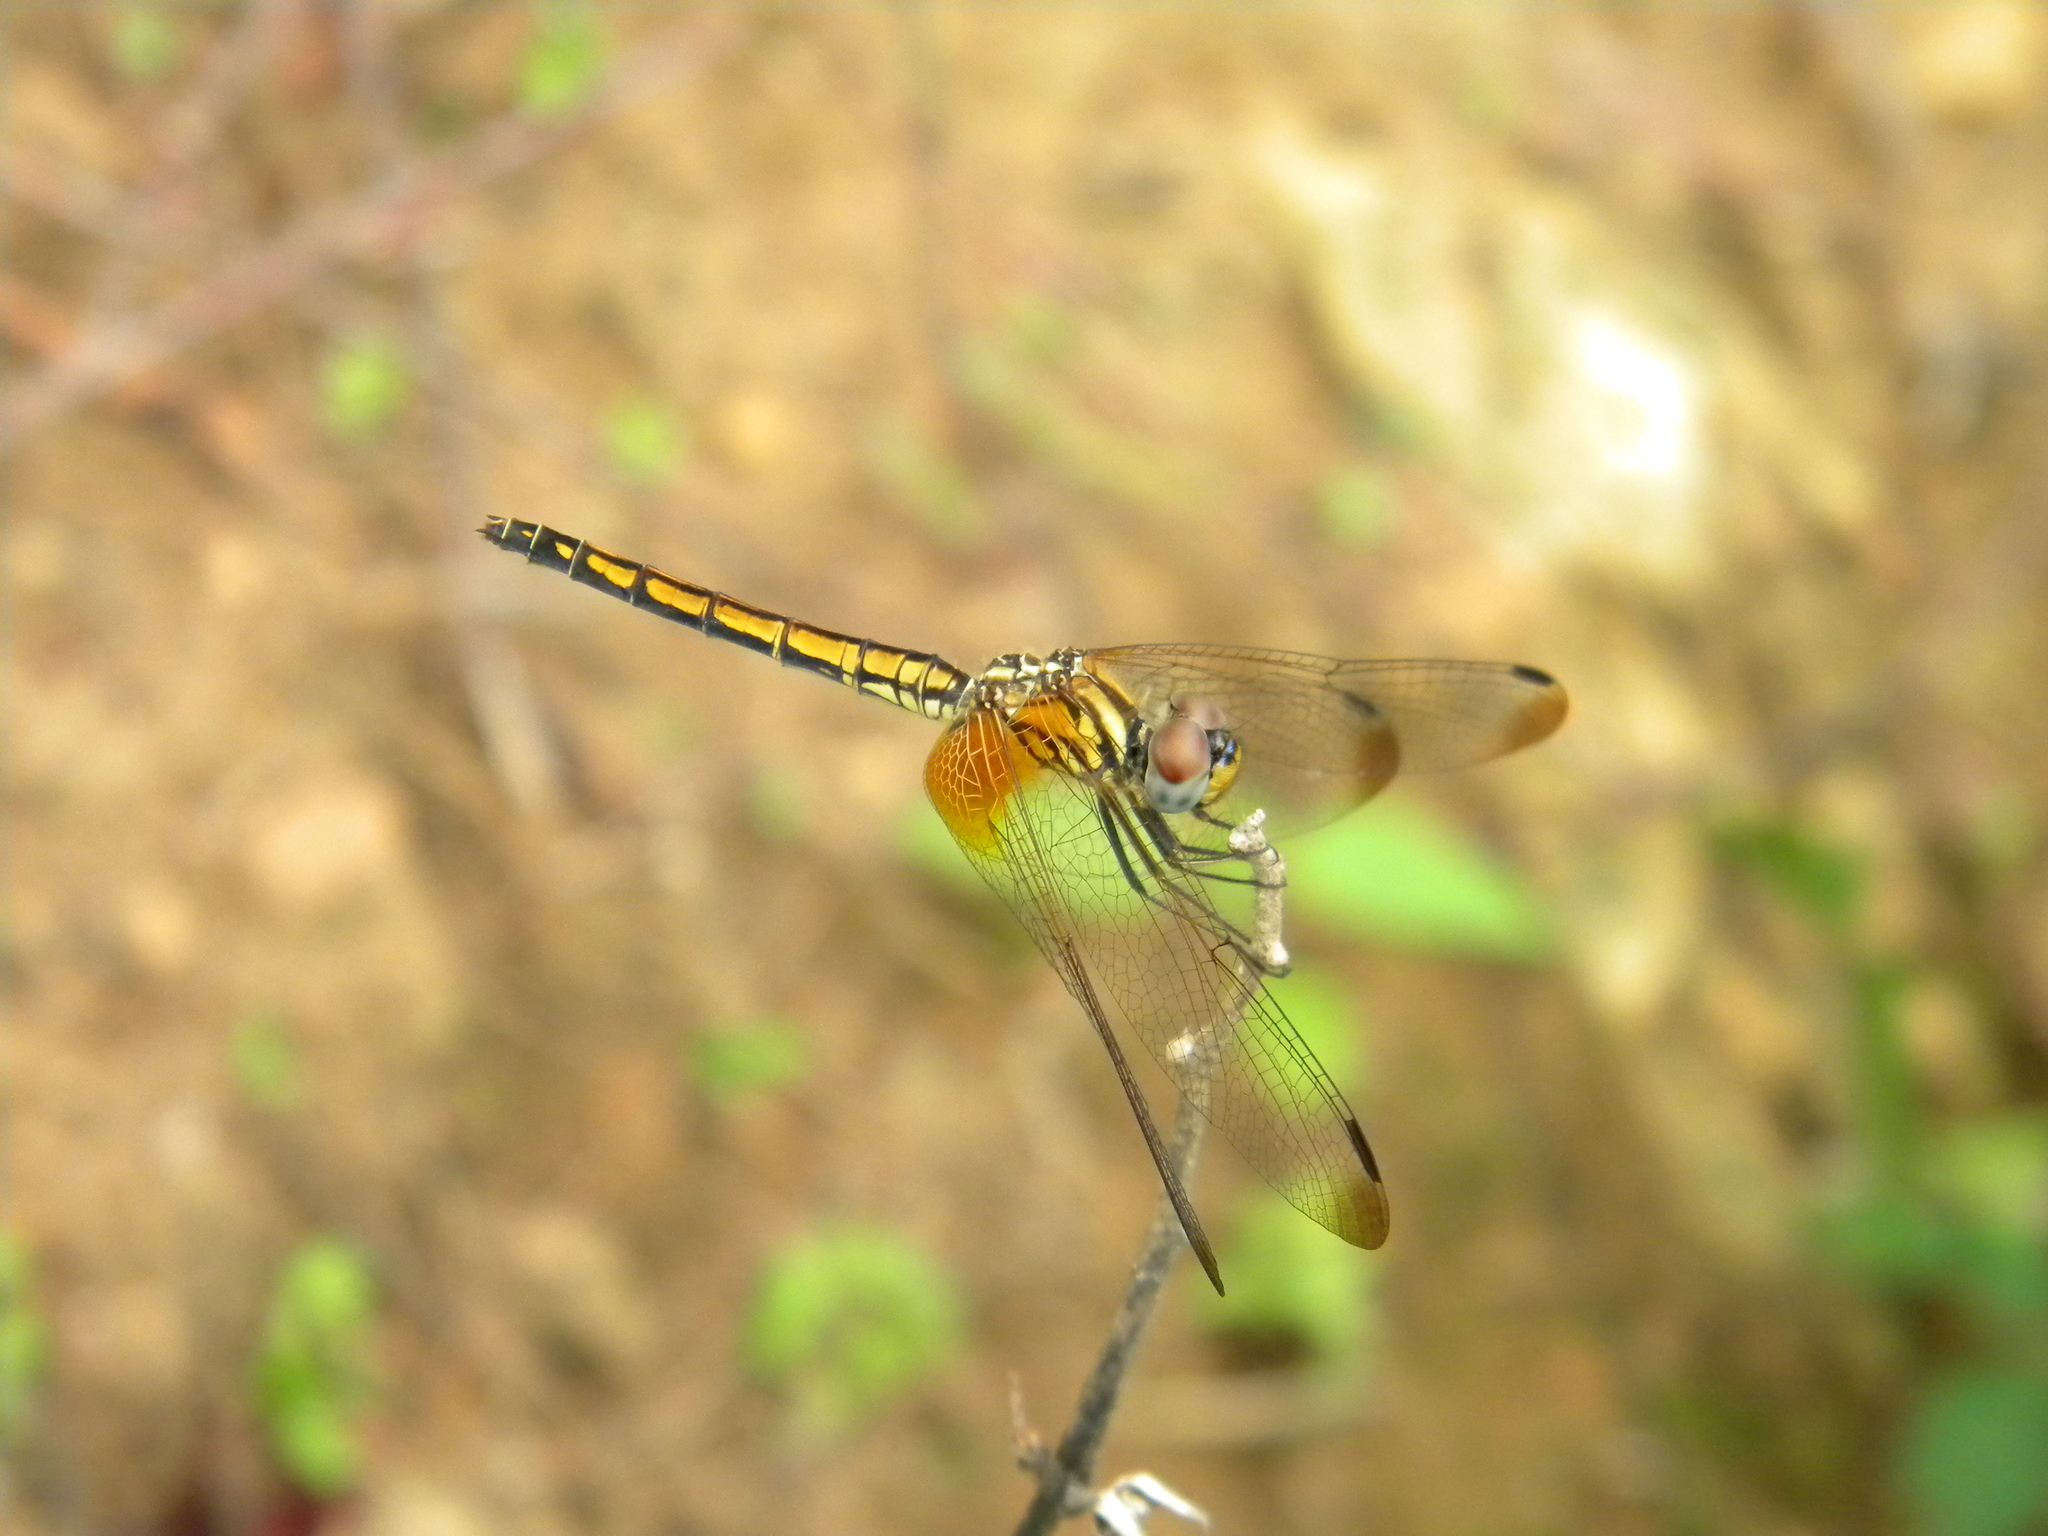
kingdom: Animalia
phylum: Arthropoda
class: Insecta
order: Odonata
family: Libellulidae
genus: Trithemis
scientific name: Trithemis aurora
